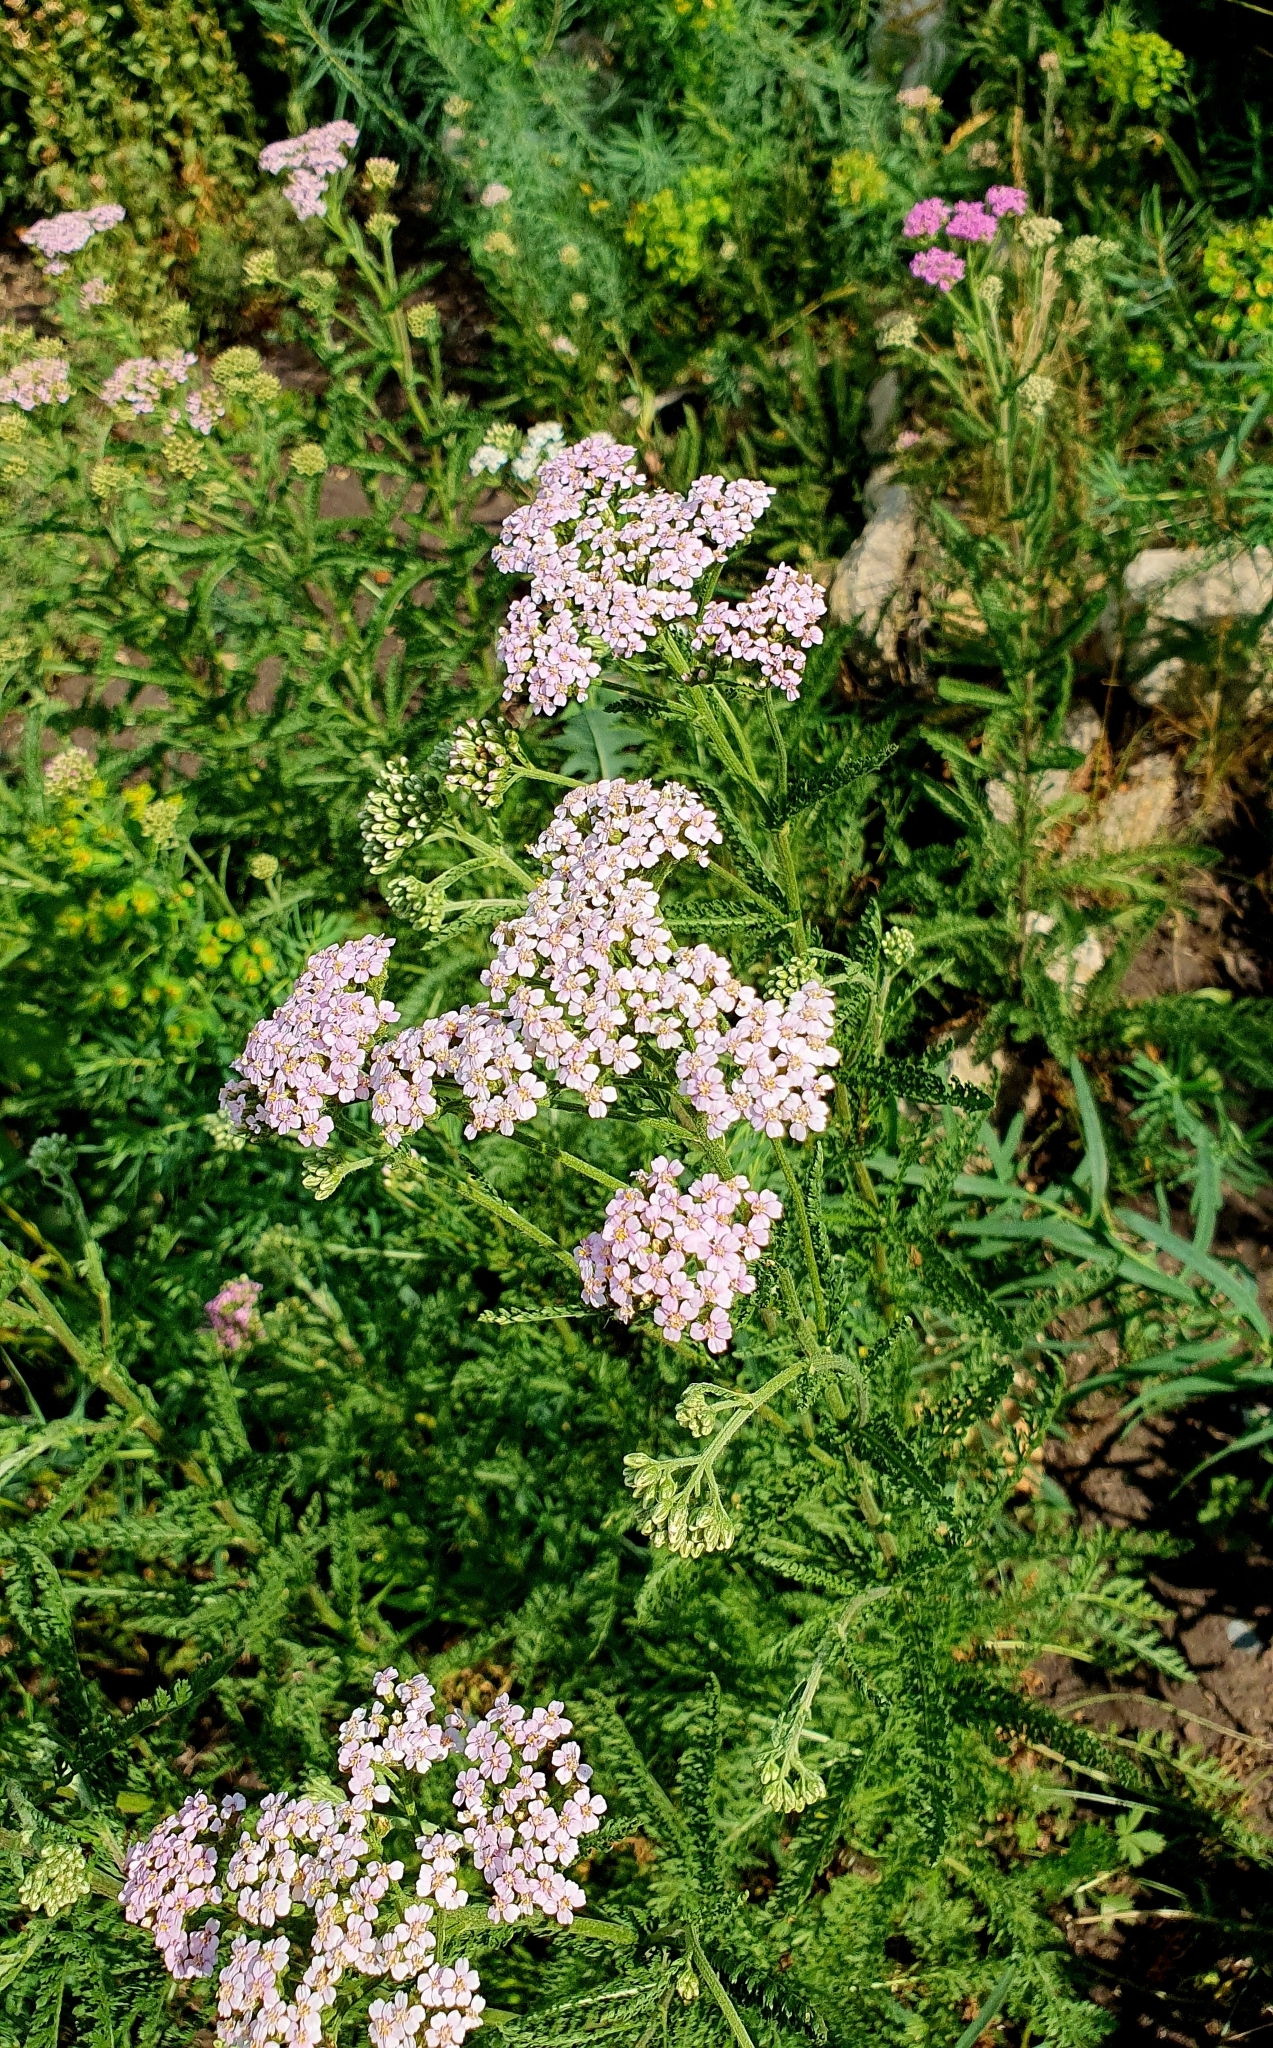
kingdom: Plantae
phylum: Tracheophyta
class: Magnoliopsida
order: Asterales
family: Asteraceae
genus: Achillea
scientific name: Achillea millefolium
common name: Yarrow
